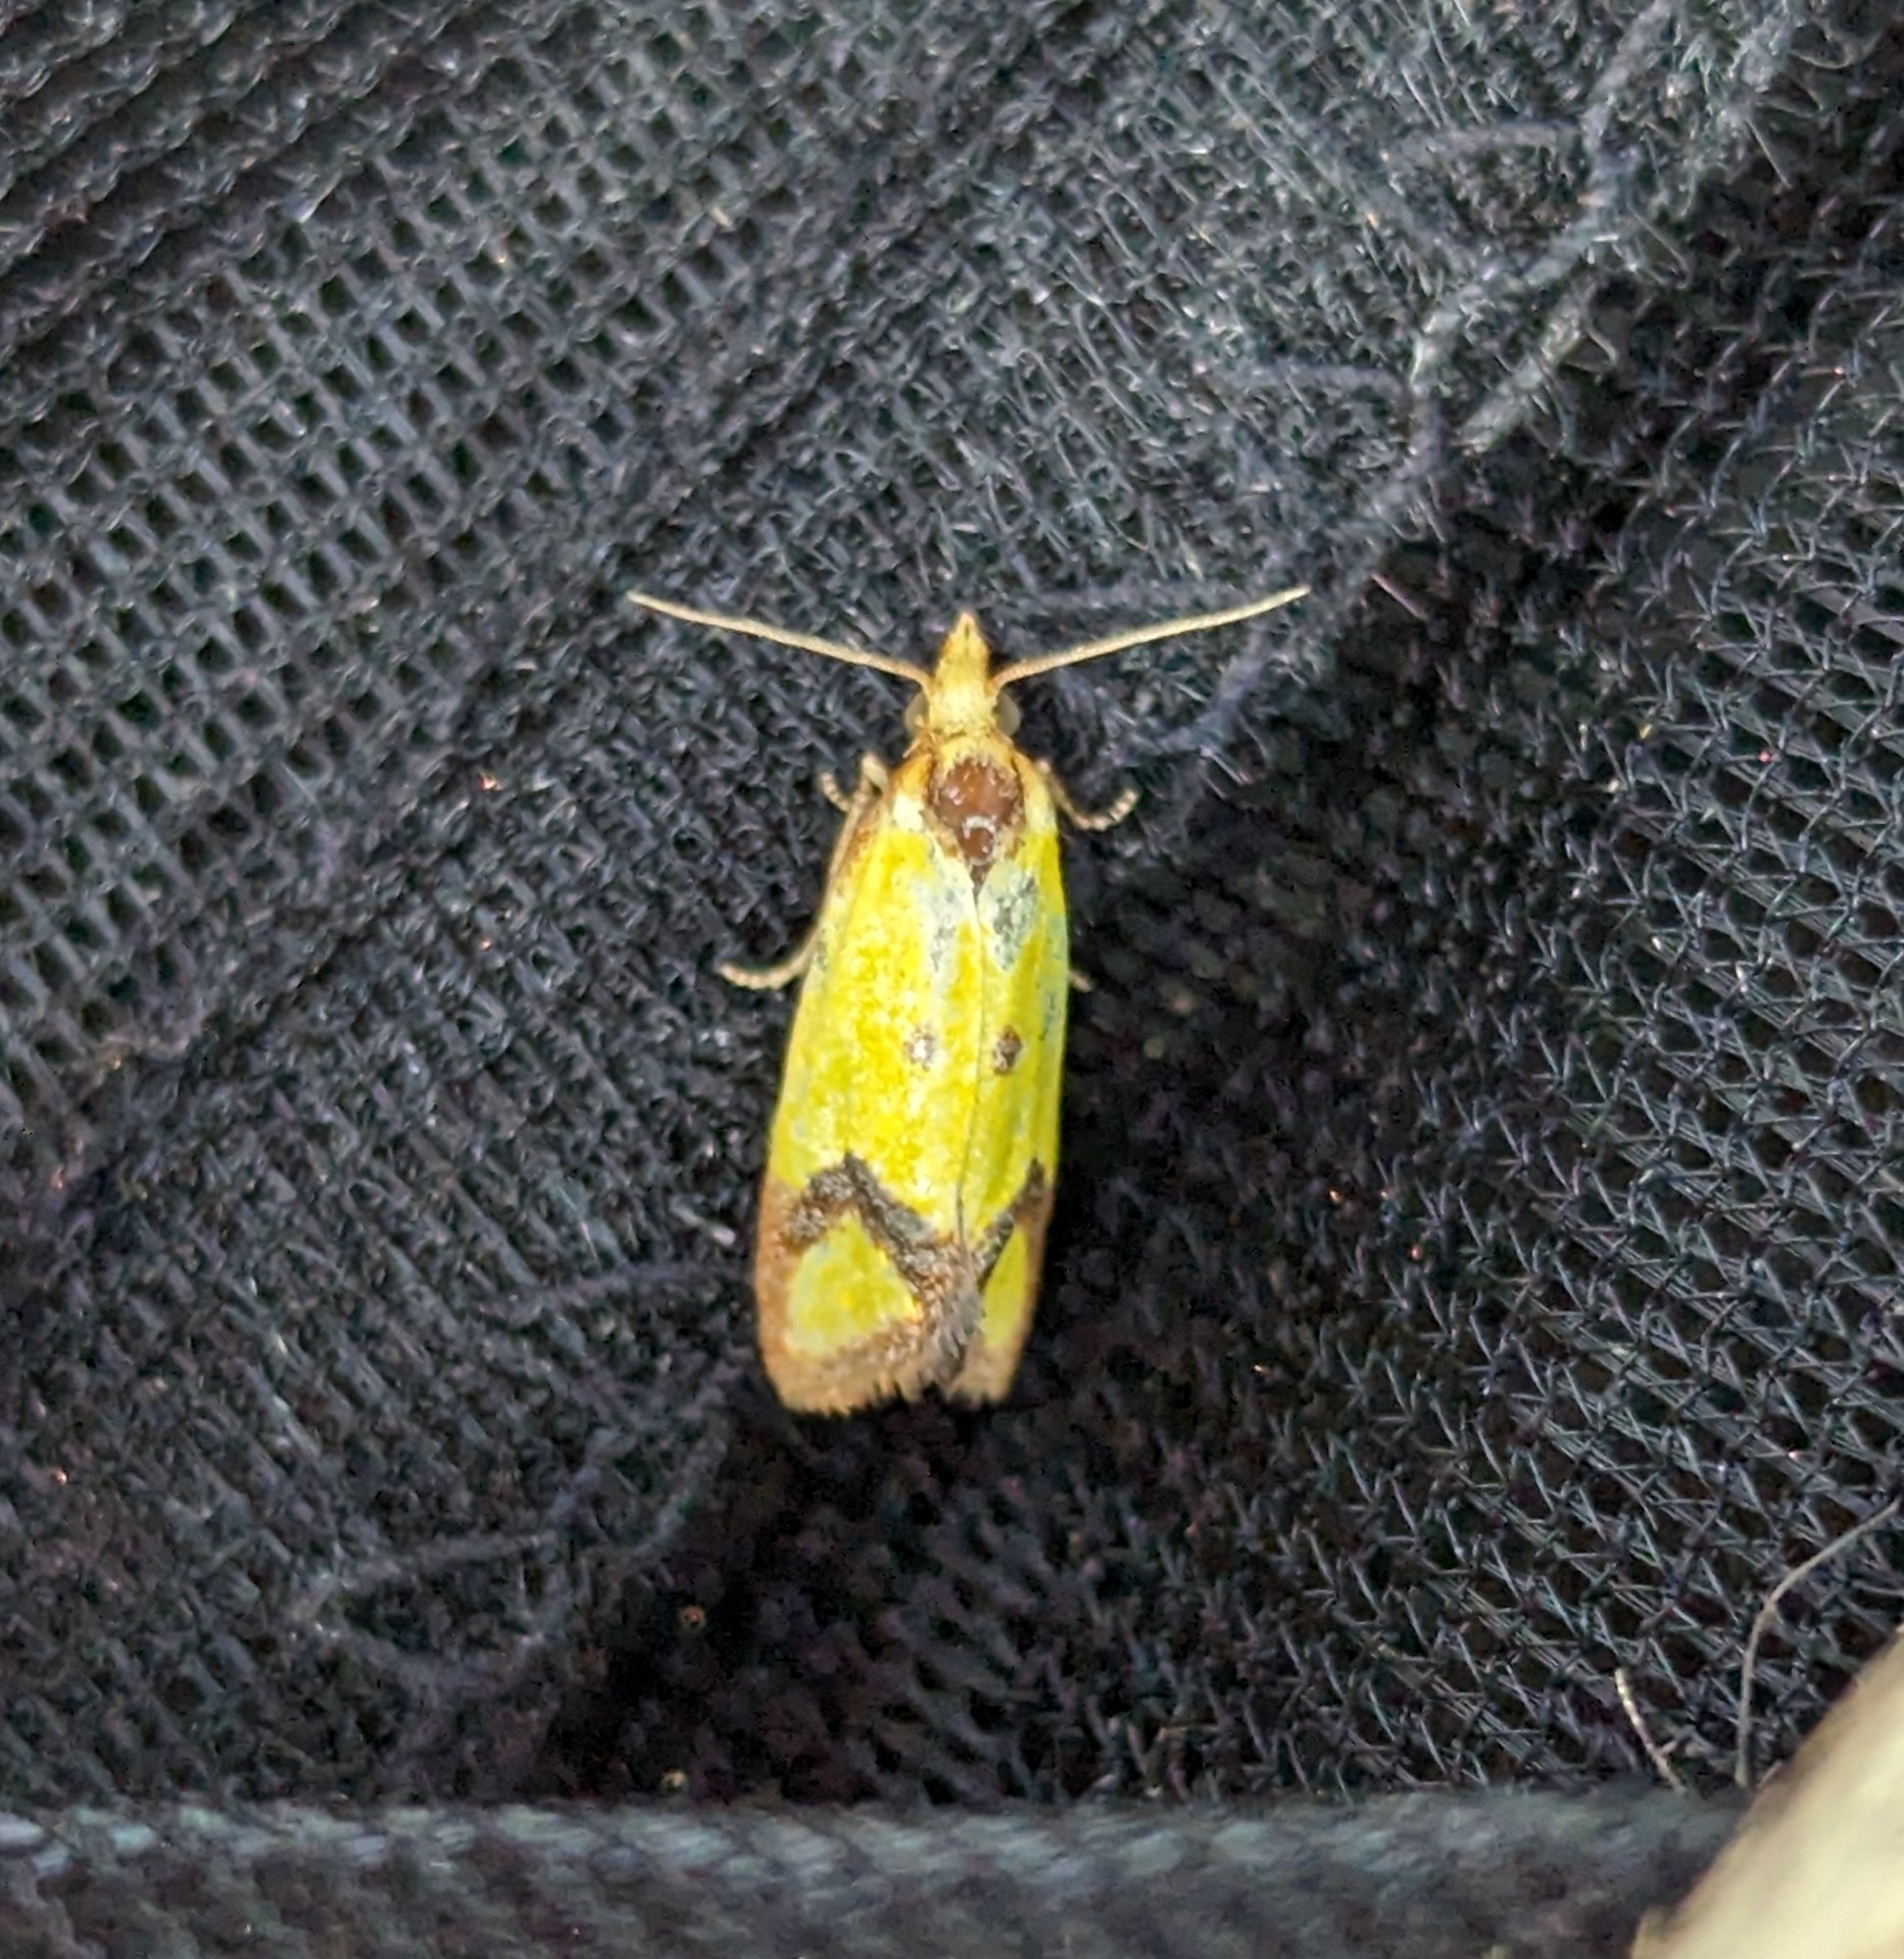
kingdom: Animalia
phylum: Arthropoda
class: Insecta
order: Lepidoptera
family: Tortricidae
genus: Agapeta
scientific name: Agapeta zoegana
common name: Sulfur knapweed root moth
